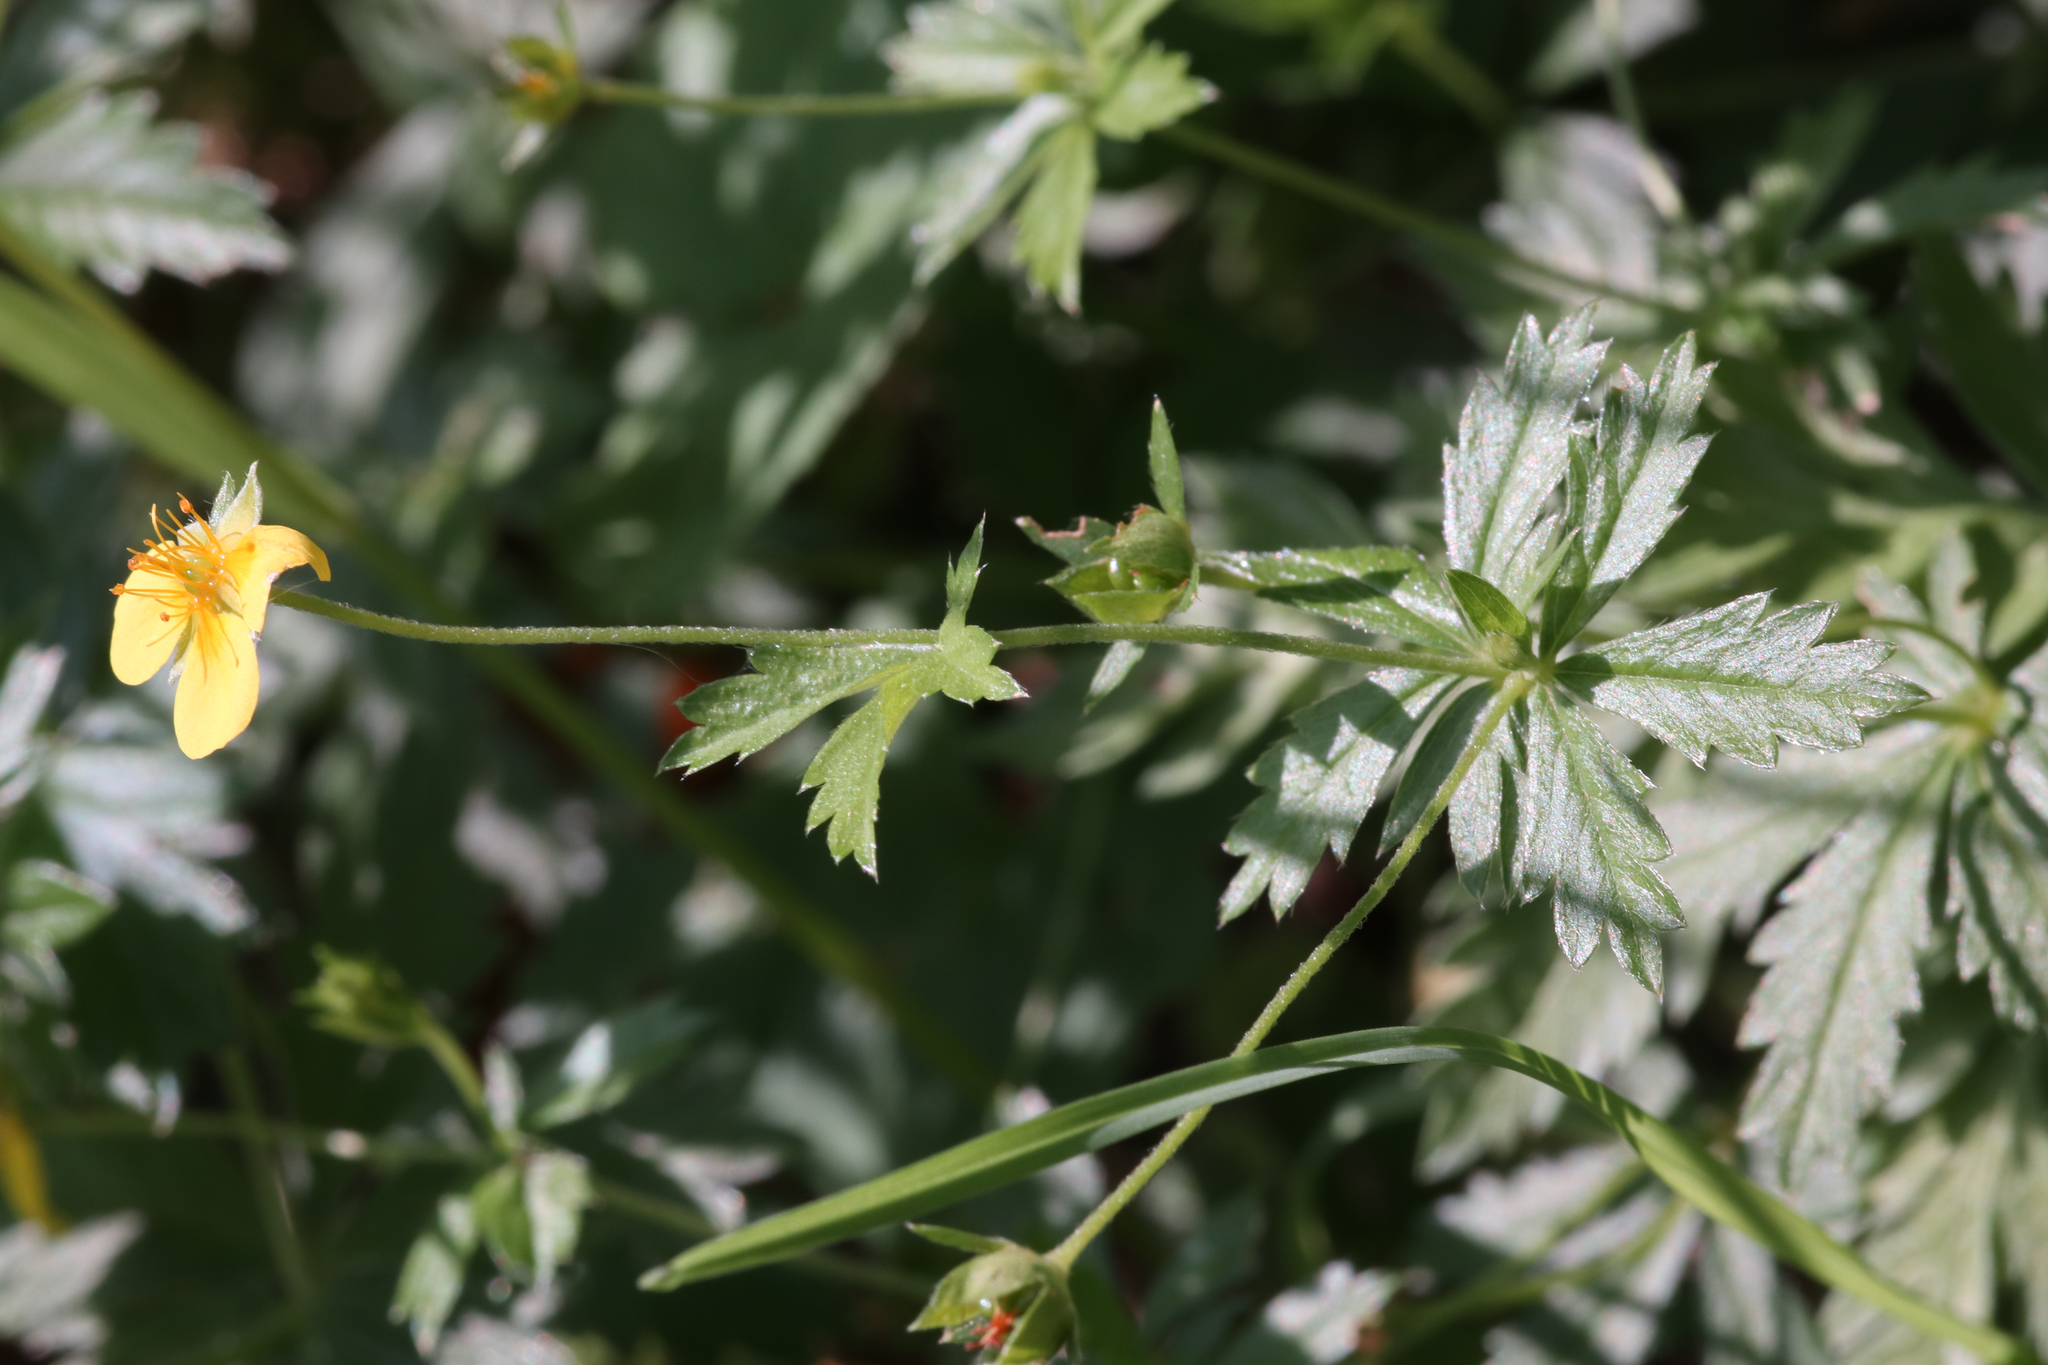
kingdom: Plantae
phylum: Tracheophyta
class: Magnoliopsida
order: Rosales
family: Rosaceae
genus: Potentilla
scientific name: Potentilla erecta
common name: Tormentil
